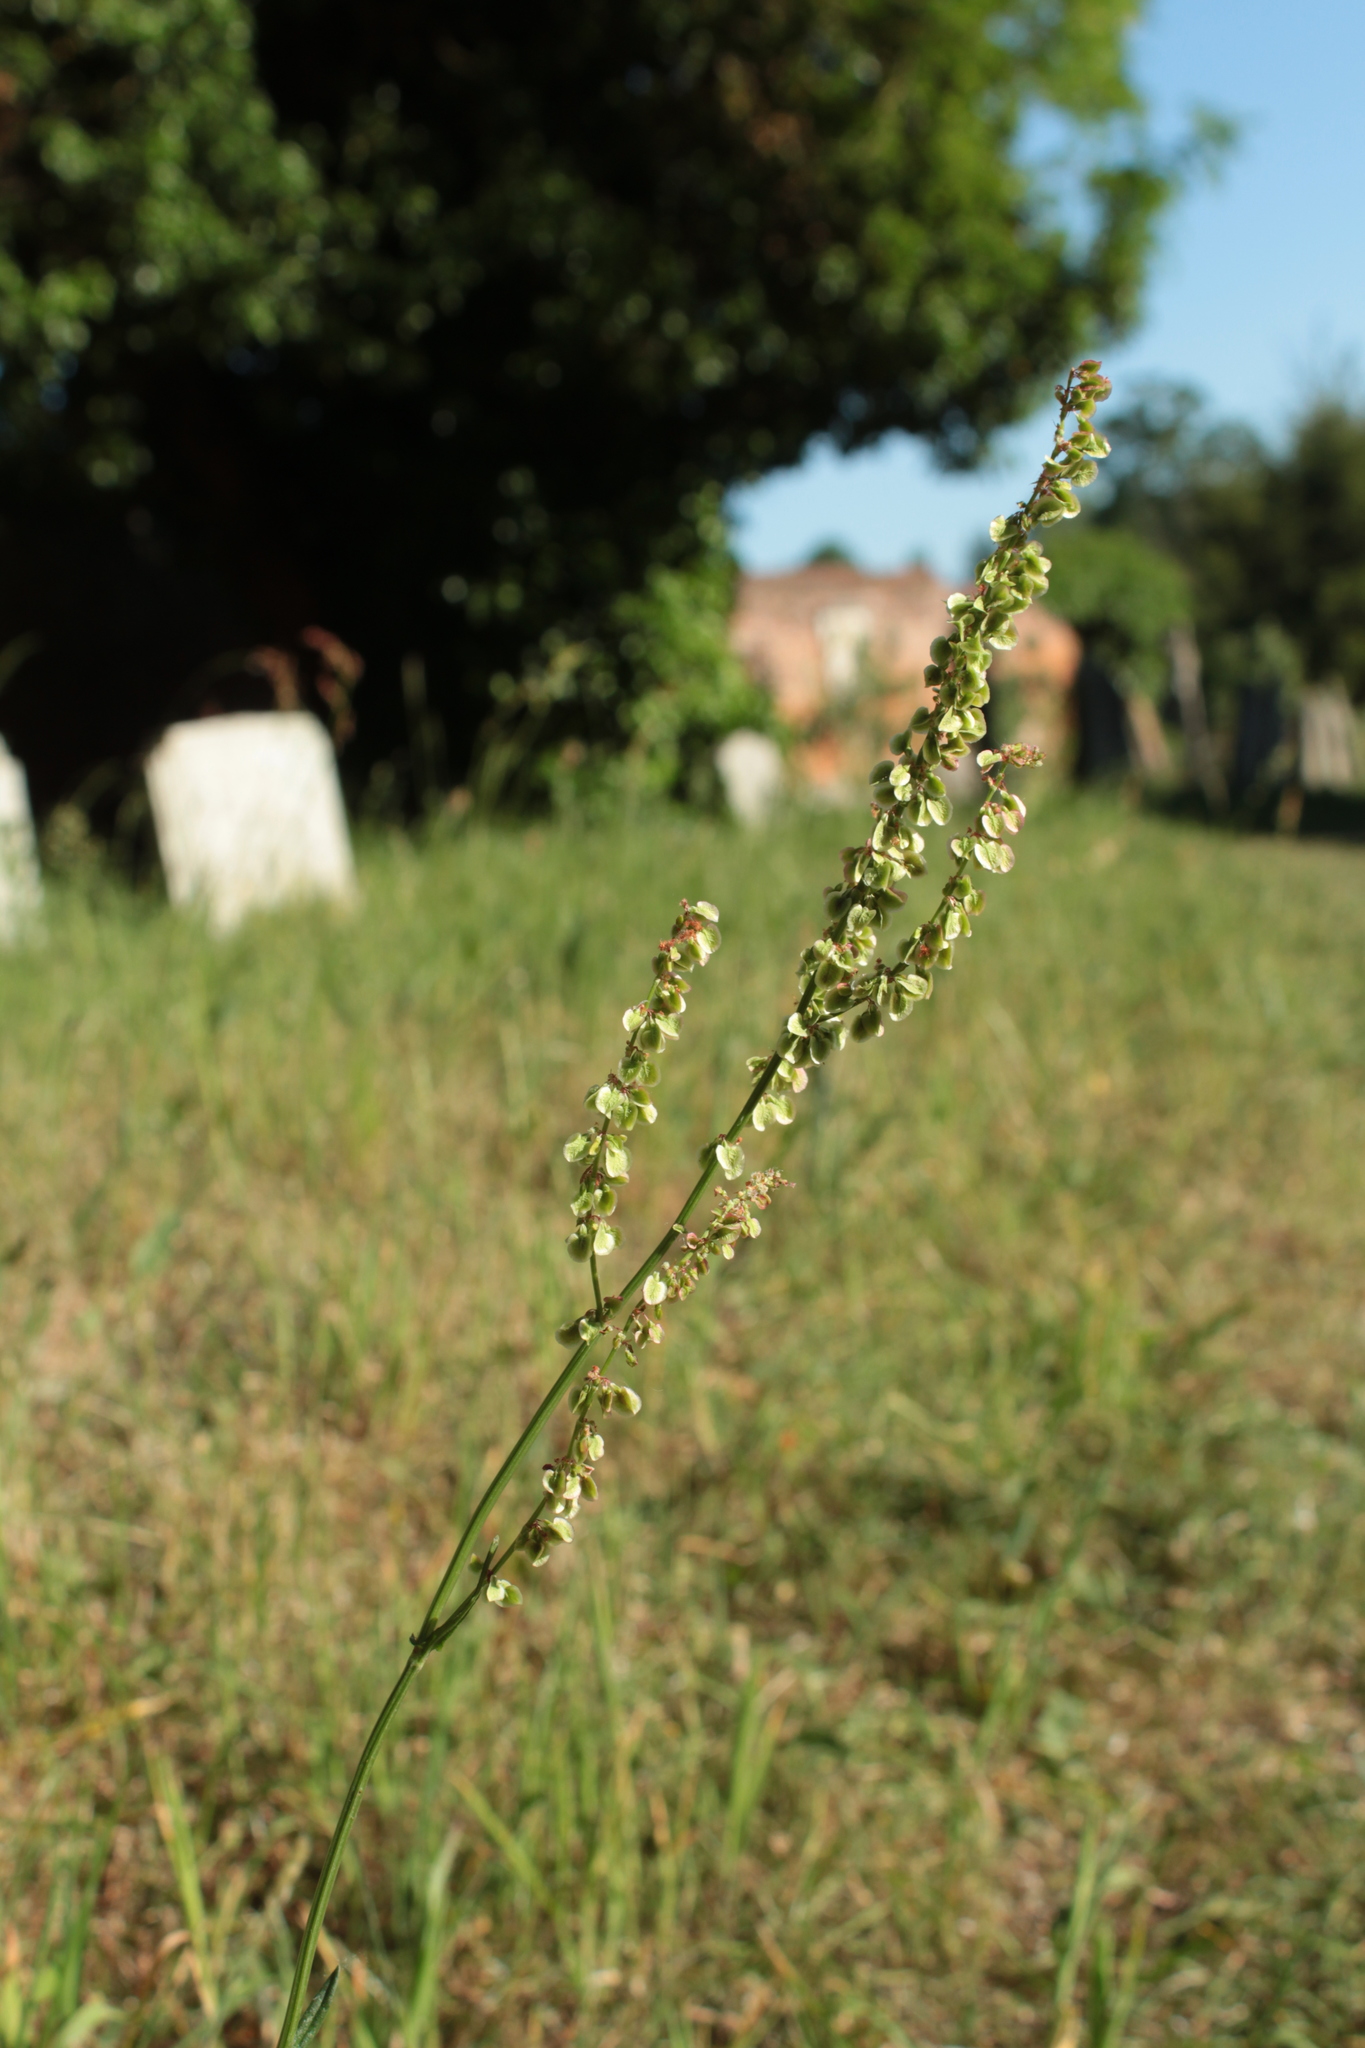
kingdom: Plantae
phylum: Tracheophyta
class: Magnoliopsida
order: Caryophyllales
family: Polygonaceae
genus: Rumex
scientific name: Rumex acetosa
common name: Garden sorrel
